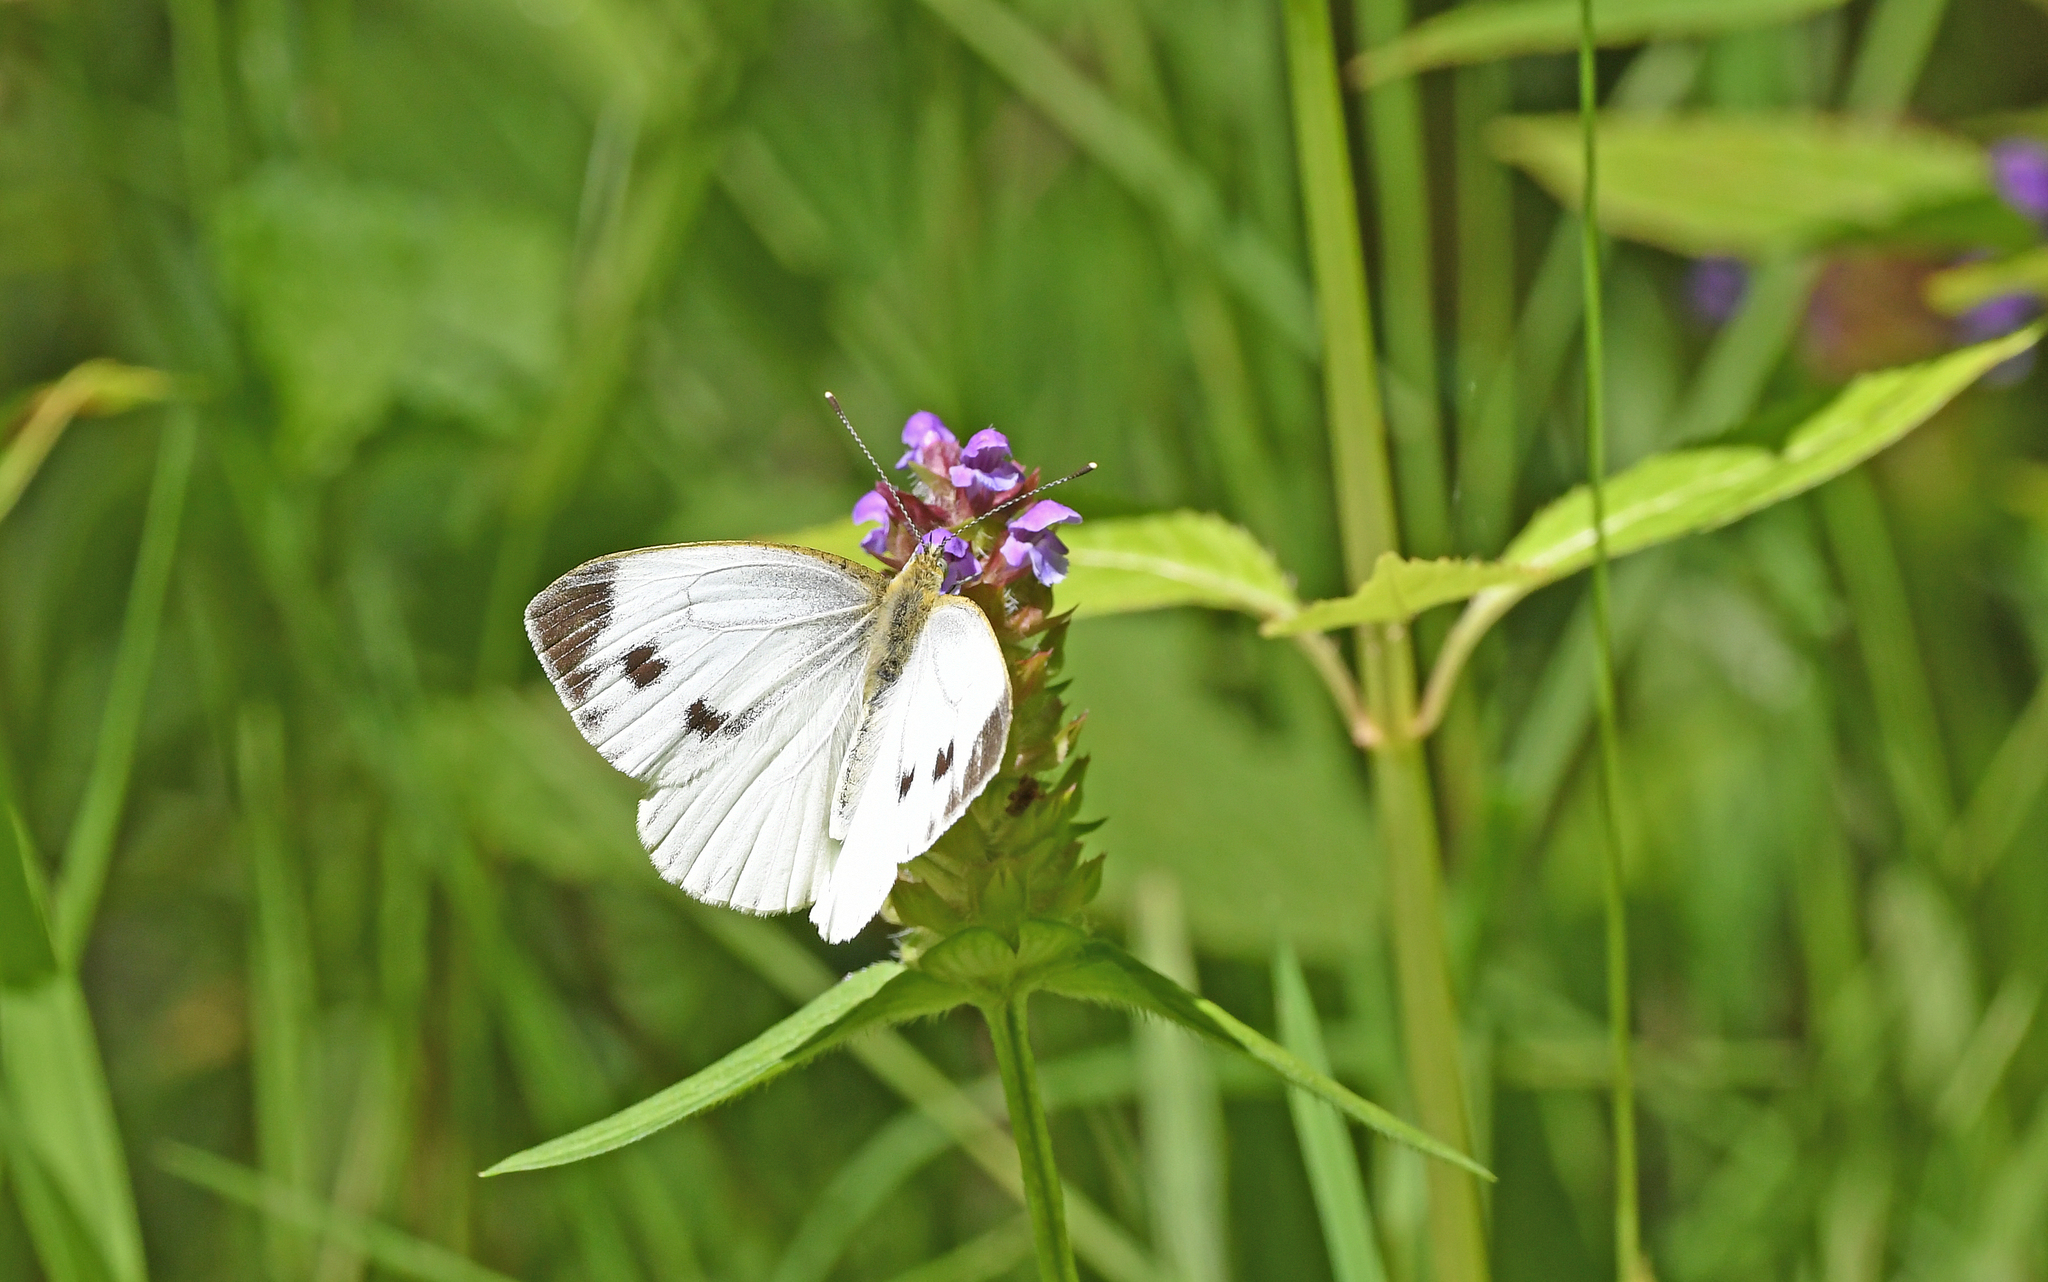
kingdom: Animalia
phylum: Arthropoda
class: Insecta
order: Lepidoptera
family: Pieridae
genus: Pieris
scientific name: Pieris napi
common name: Green-veined white
